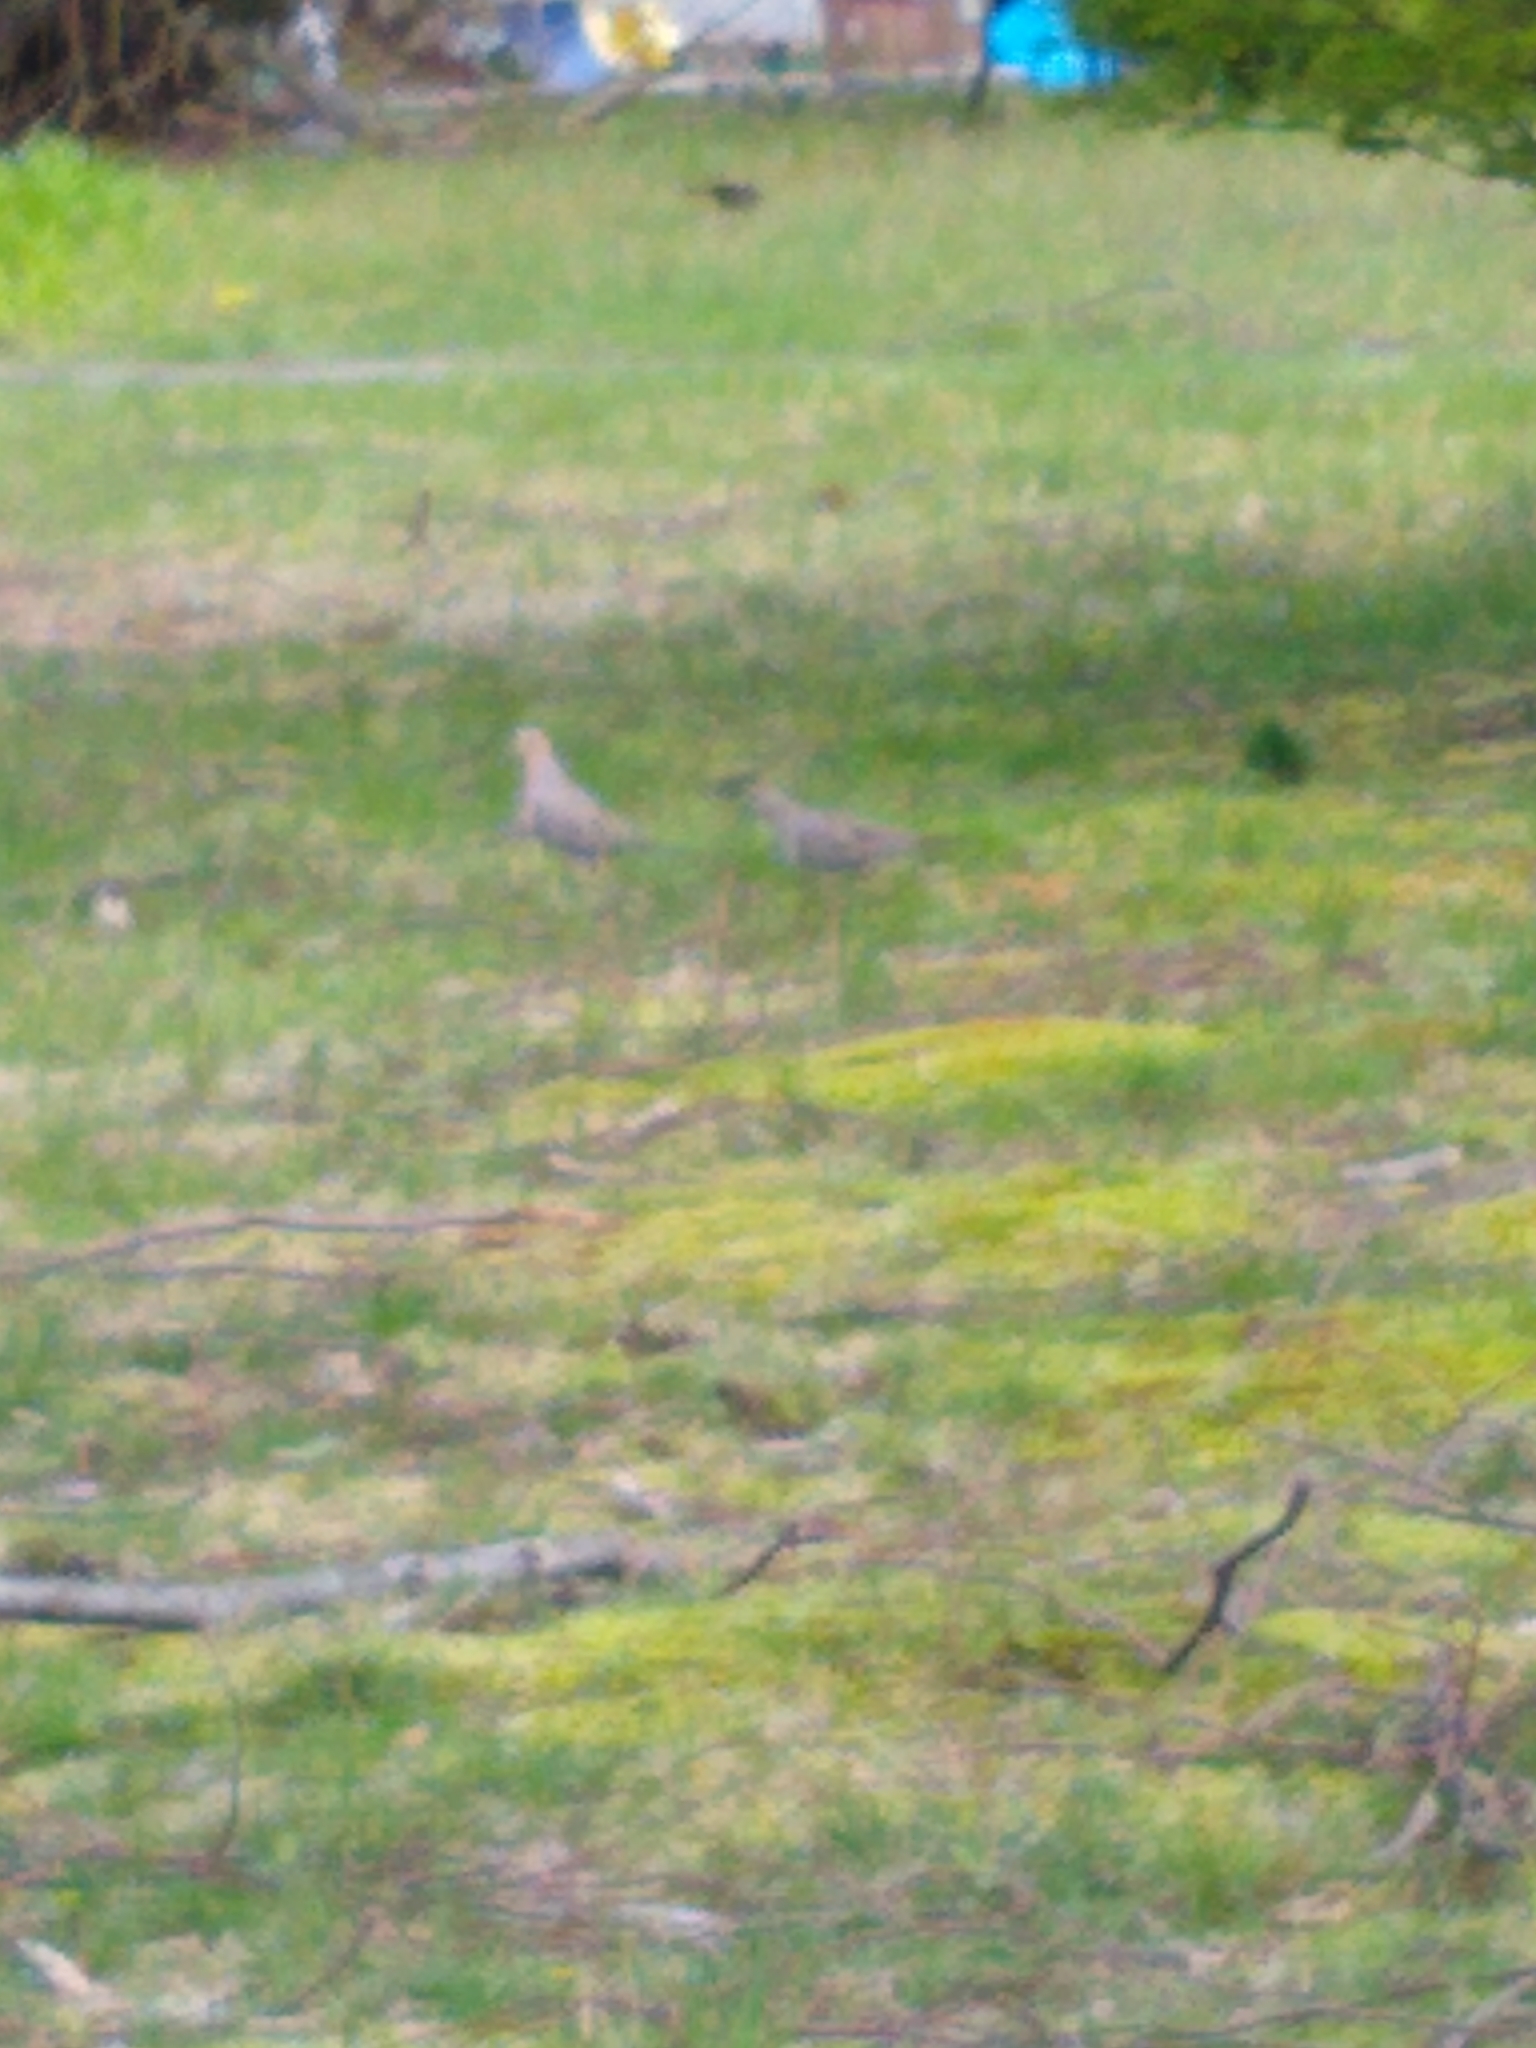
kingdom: Animalia
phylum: Chordata
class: Aves
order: Columbiformes
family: Columbidae
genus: Zenaida
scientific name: Zenaida macroura
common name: Mourning dove
